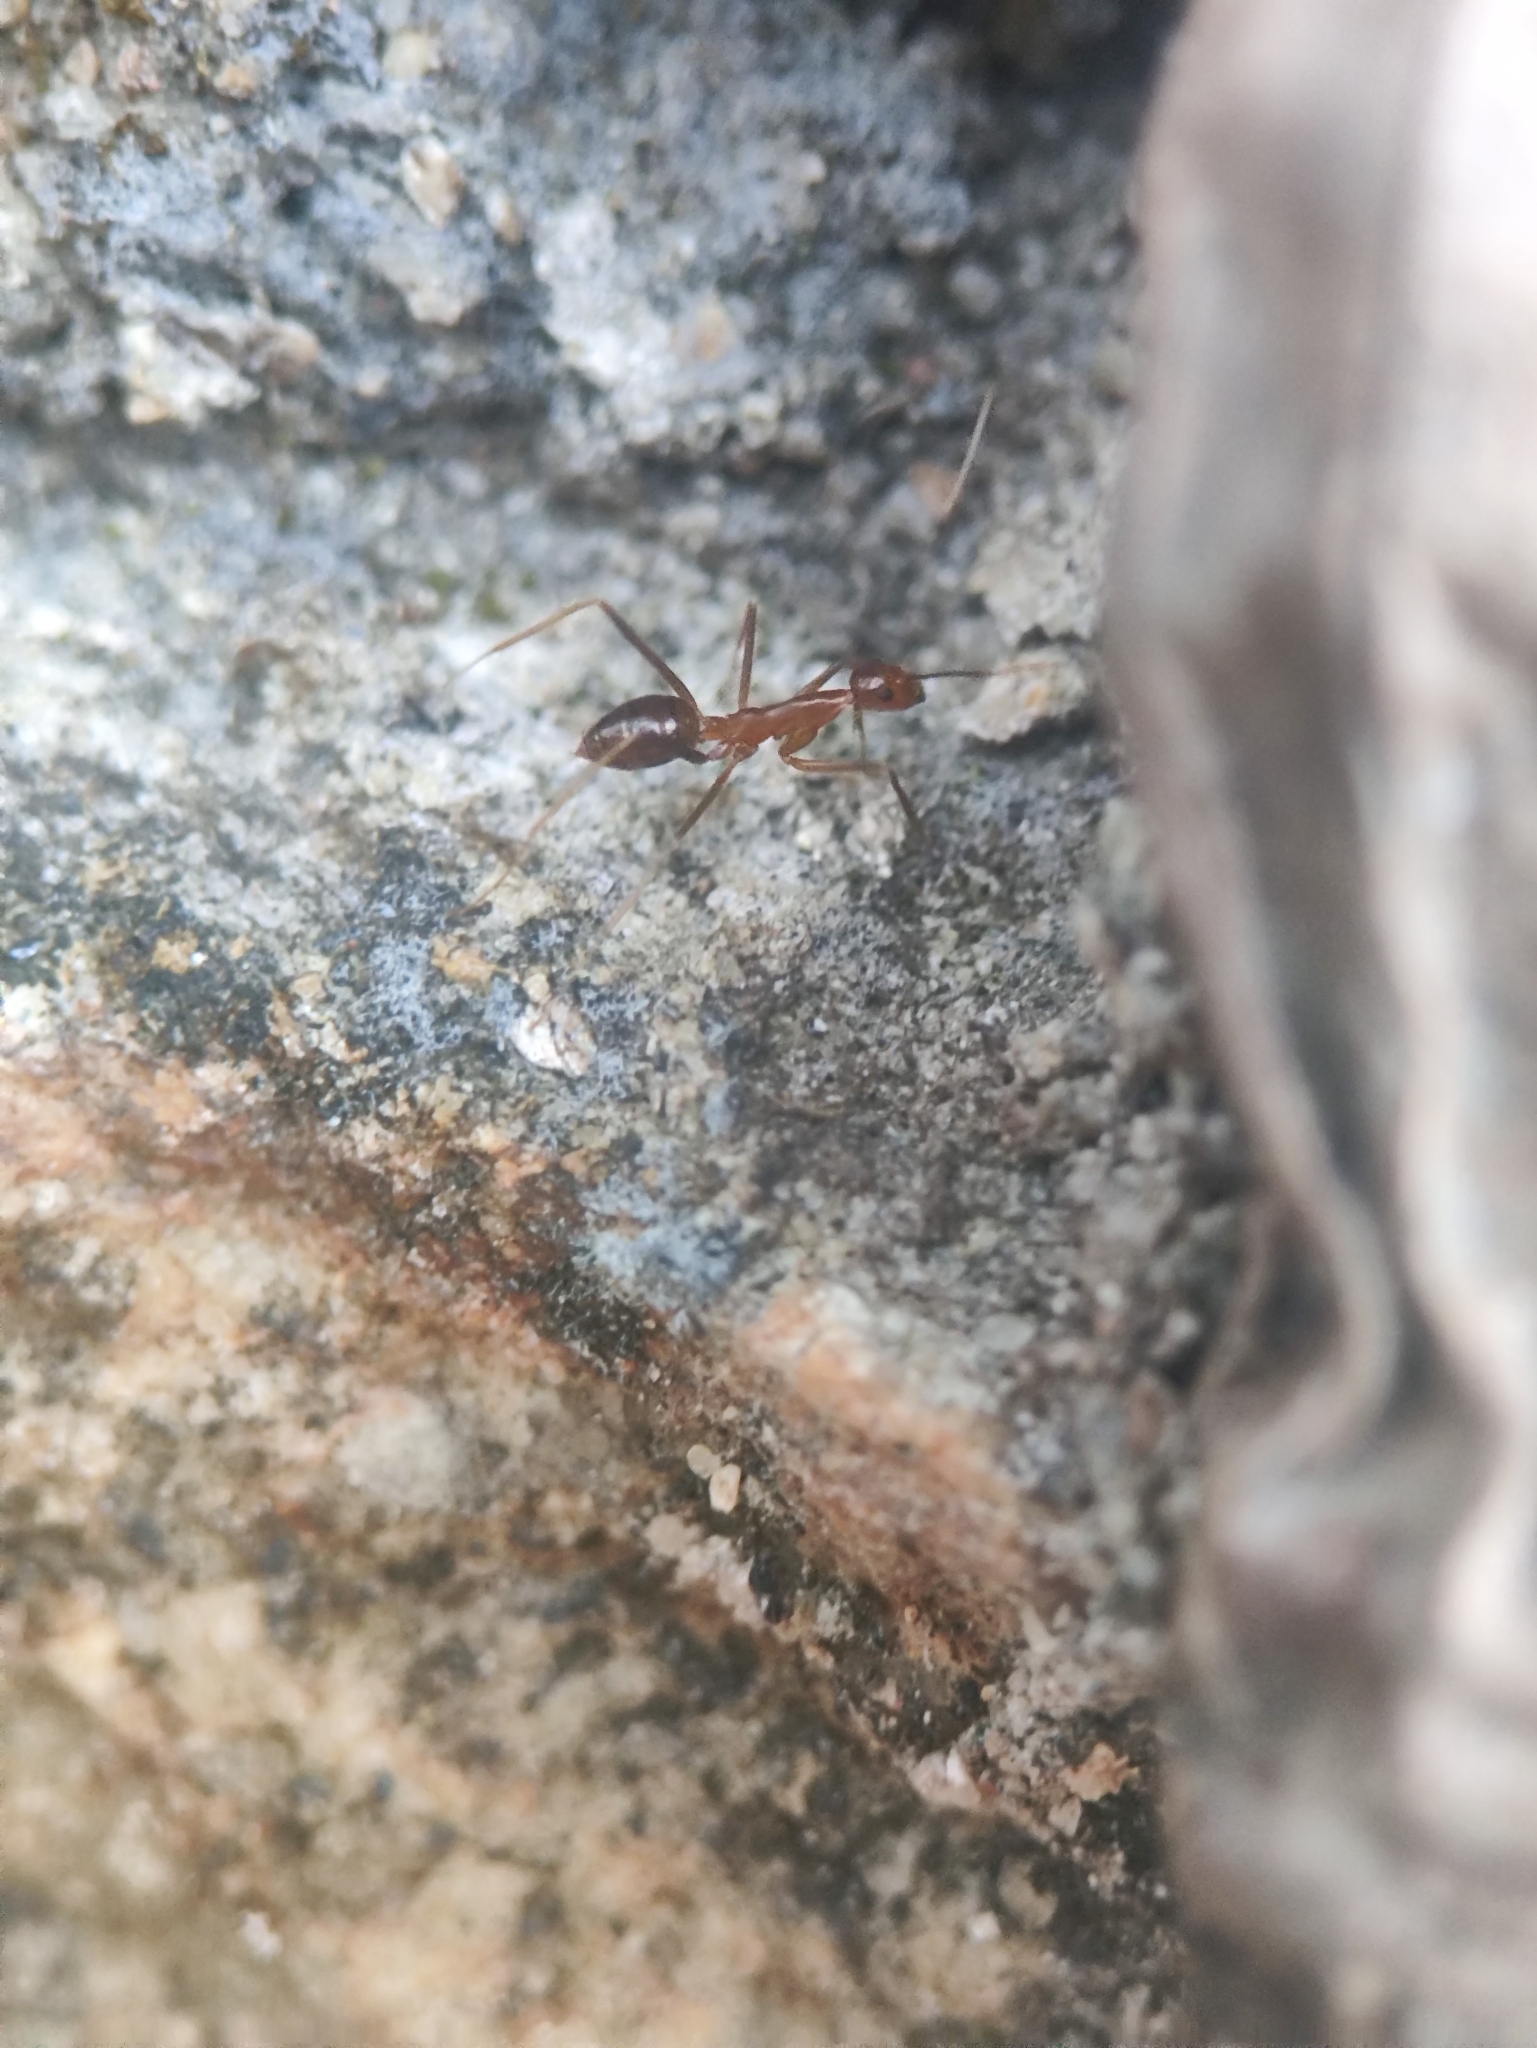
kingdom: Animalia
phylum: Arthropoda
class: Insecta
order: Hymenoptera
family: Formicidae
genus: Anoplolepis
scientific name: Anoplolepis gracilipes
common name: Ant
